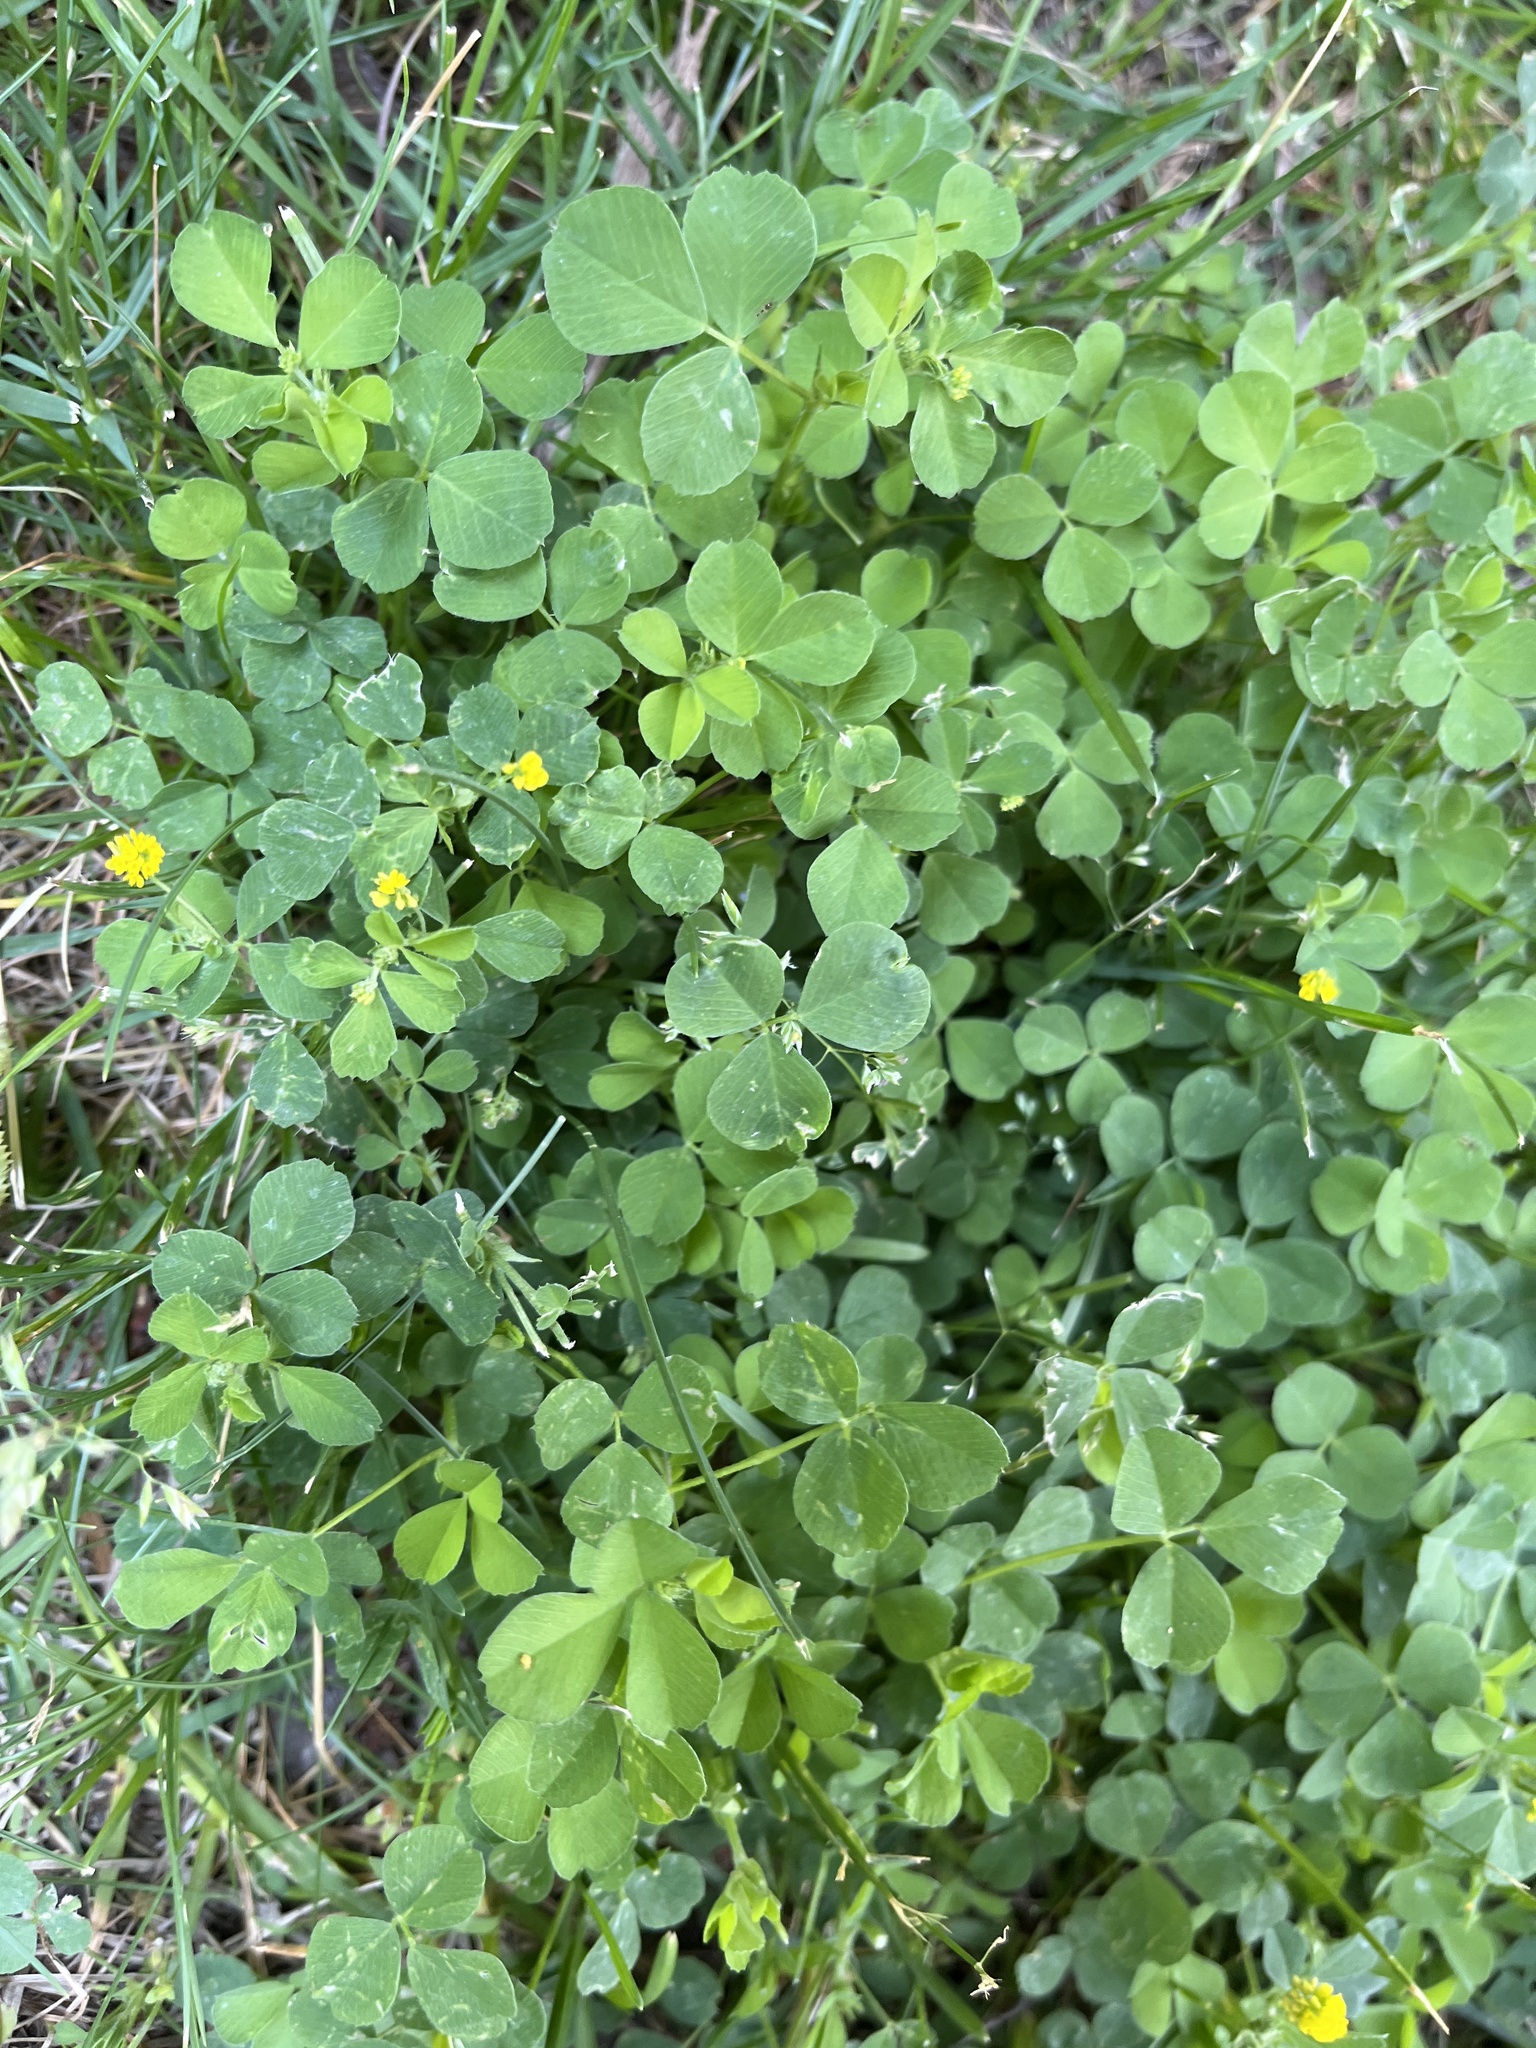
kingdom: Plantae
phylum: Tracheophyta
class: Magnoliopsida
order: Fabales
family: Fabaceae
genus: Medicago
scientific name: Medicago lupulina
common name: Black medick
